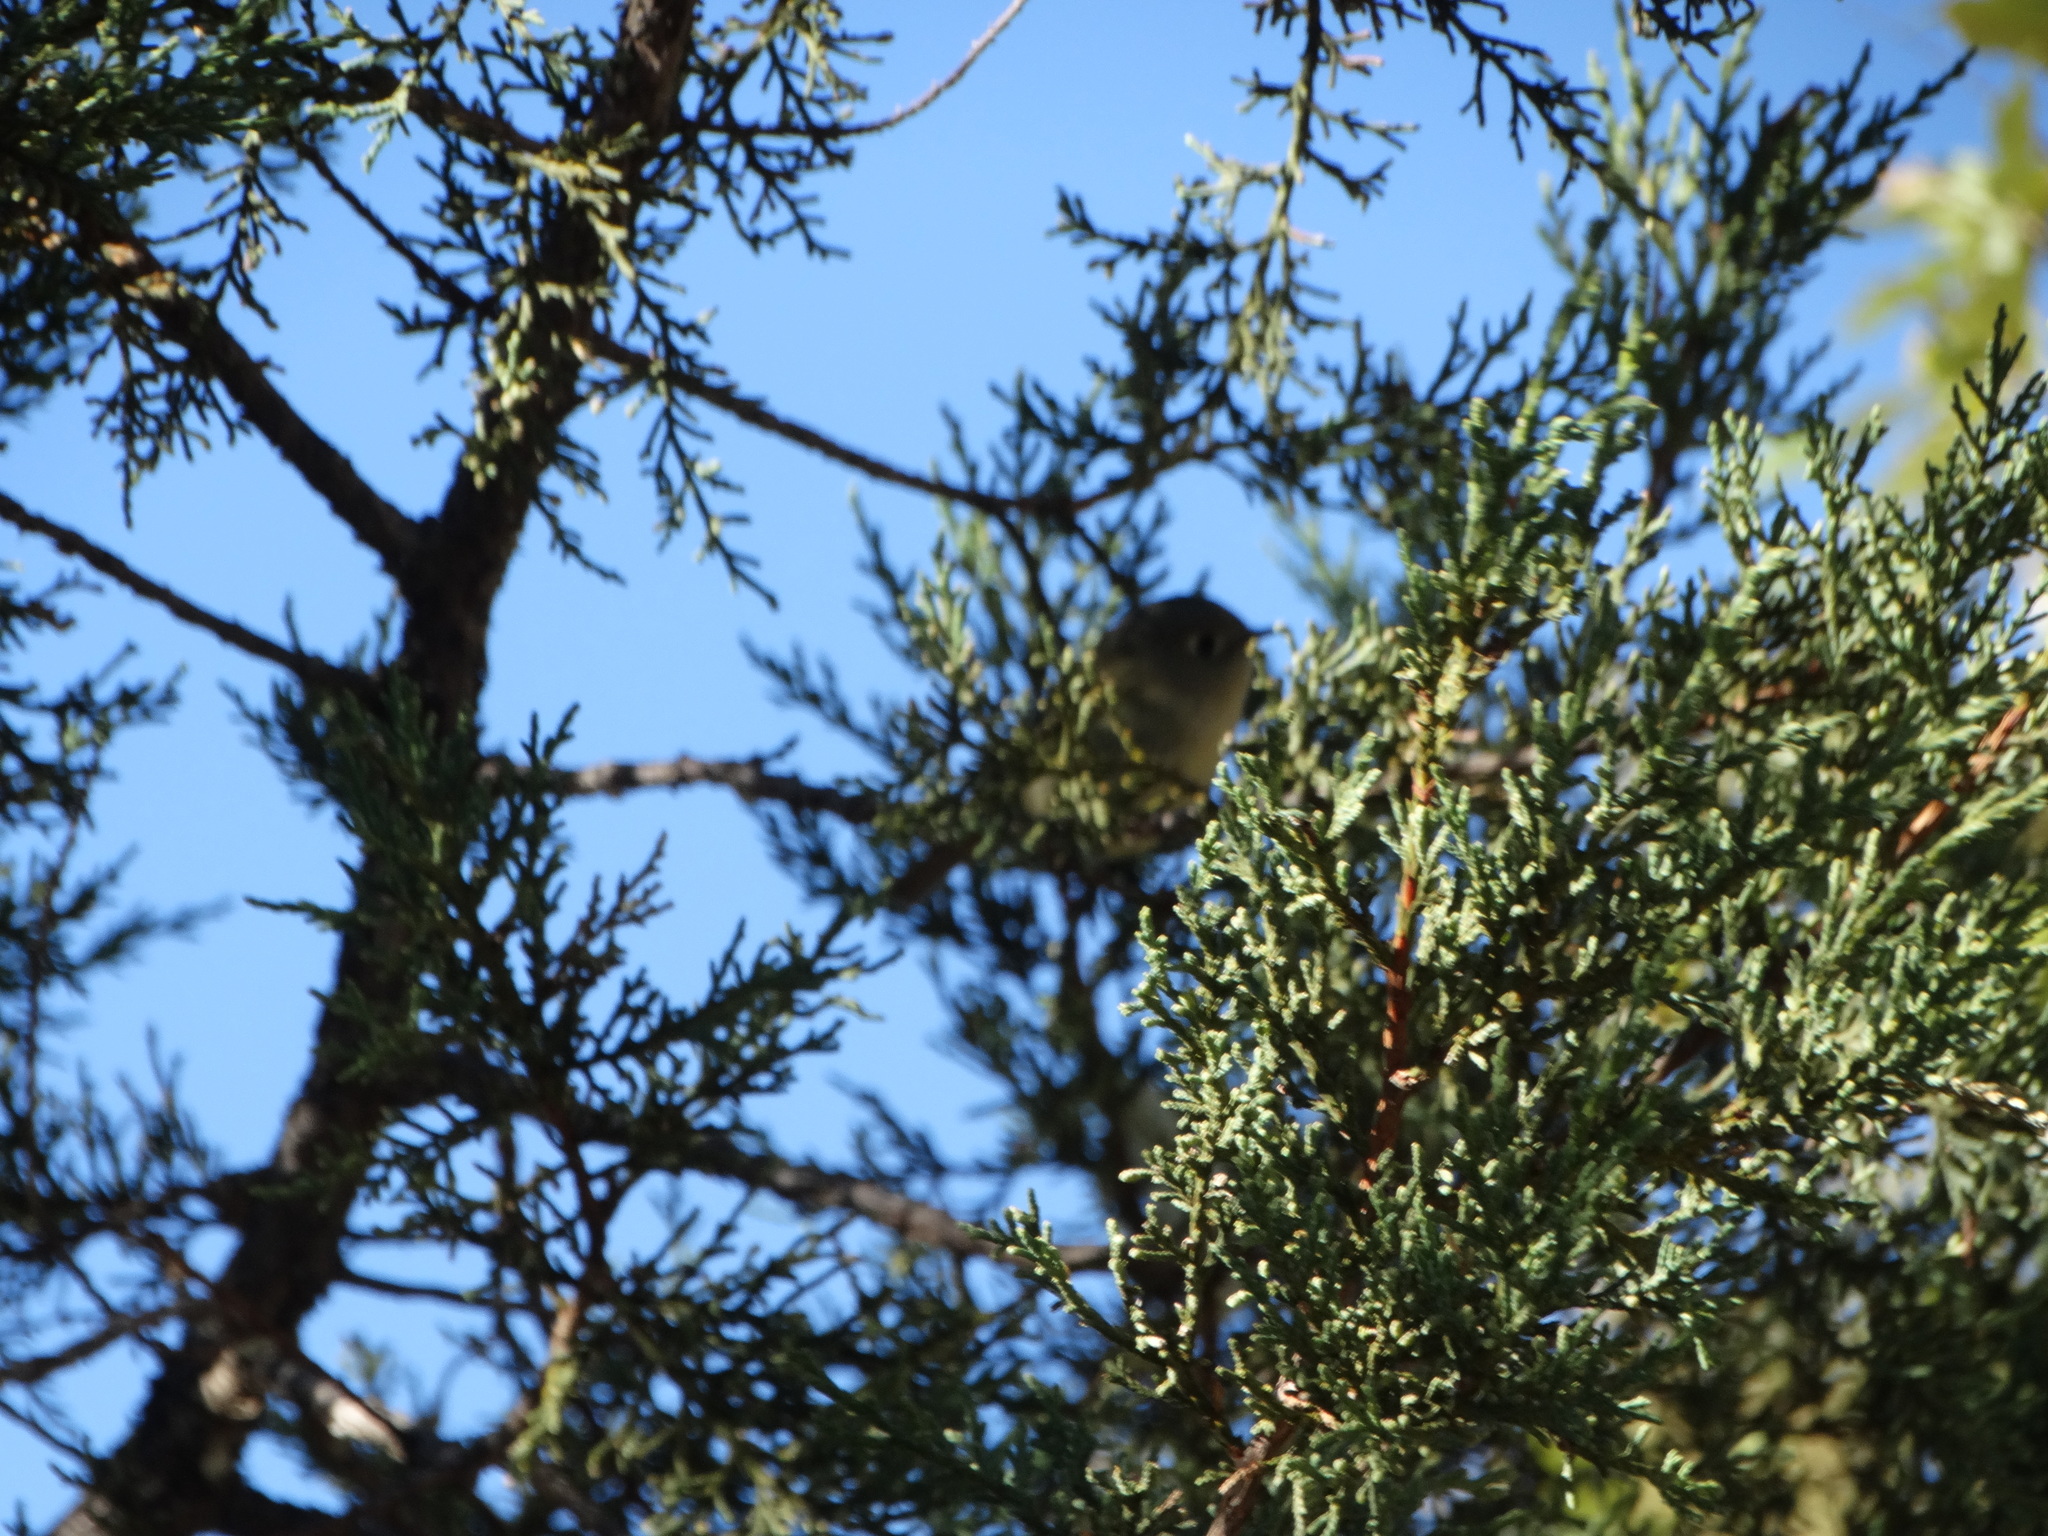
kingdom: Animalia
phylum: Chordata
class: Aves
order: Passeriformes
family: Regulidae
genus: Regulus
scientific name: Regulus calendula
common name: Ruby-crowned kinglet
